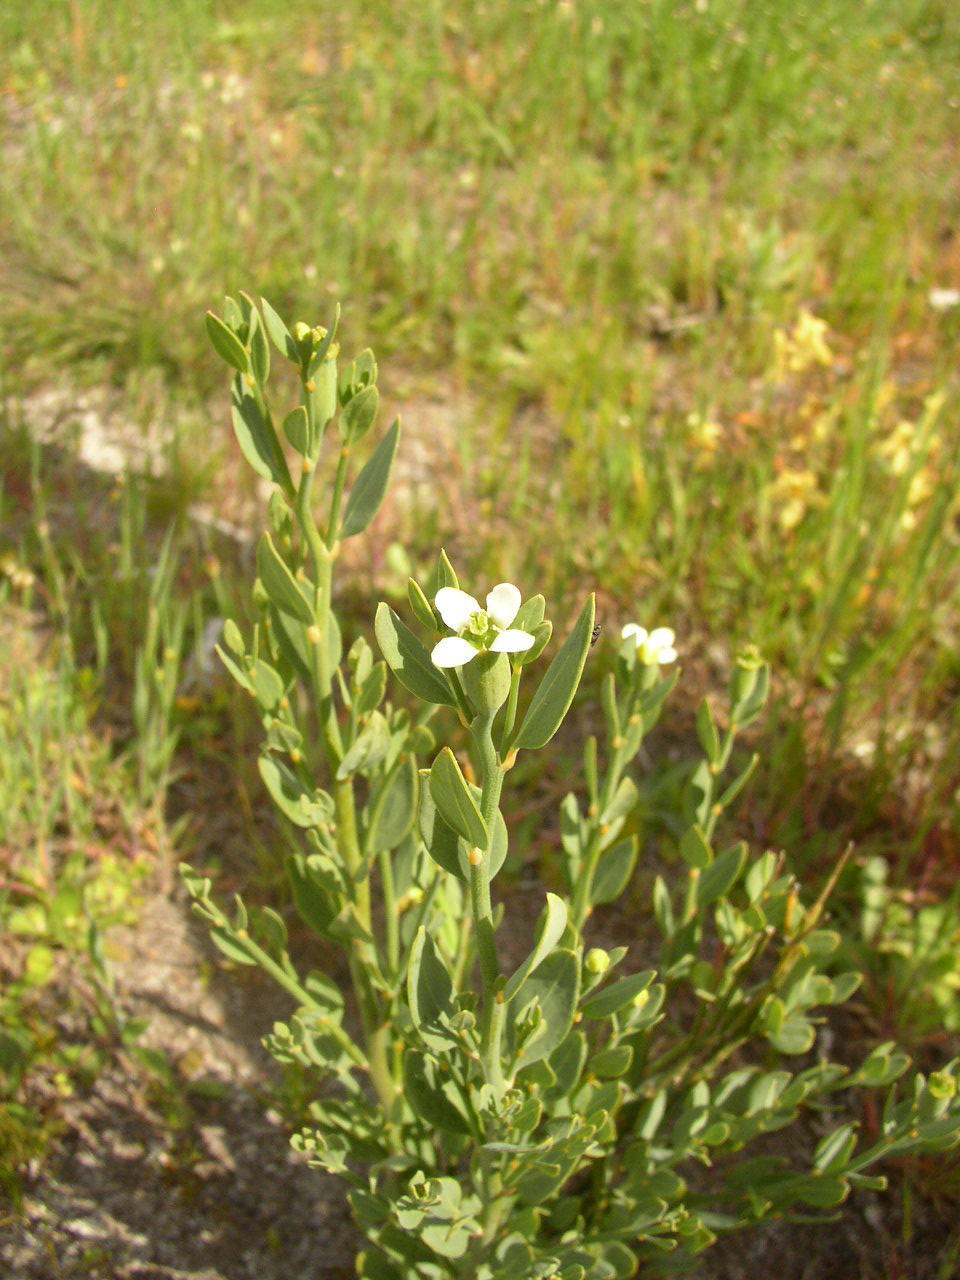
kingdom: Plantae
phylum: Tracheophyta
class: Magnoliopsida
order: Solanales
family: Montiniaceae
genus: Montinia
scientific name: Montinia caryophyllacea
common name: Wild clove-bush
